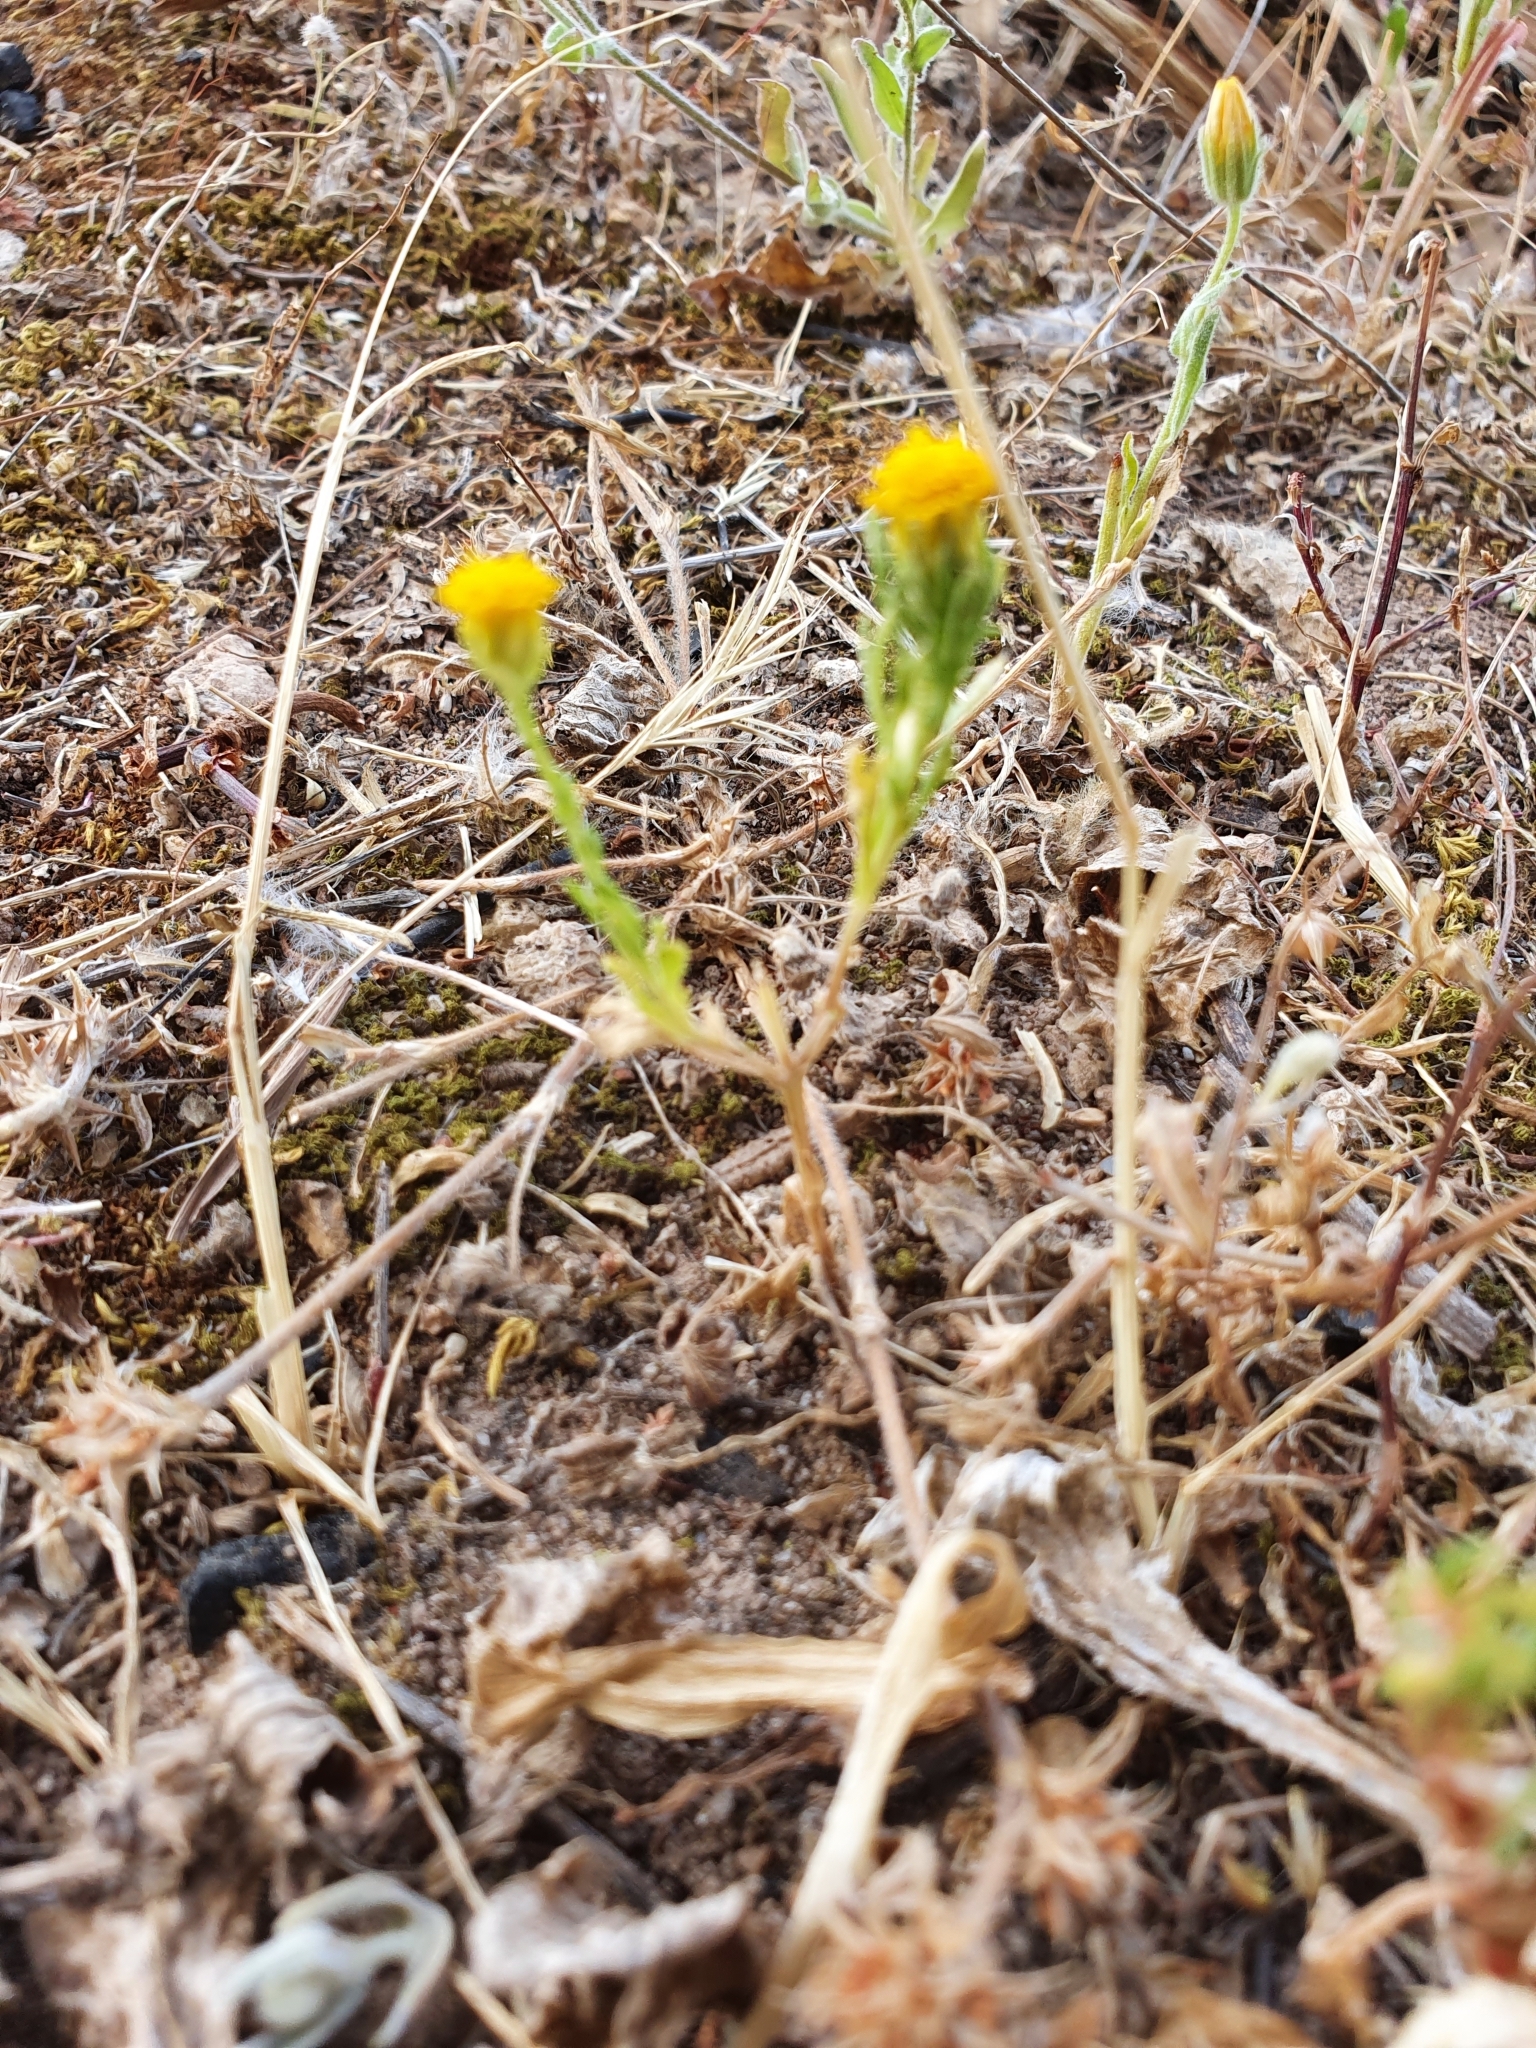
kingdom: Plantae
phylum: Tracheophyta
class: Magnoliopsida
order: Asterales
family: Asteraceae
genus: Lonas
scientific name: Lonas annua
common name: African daisy
